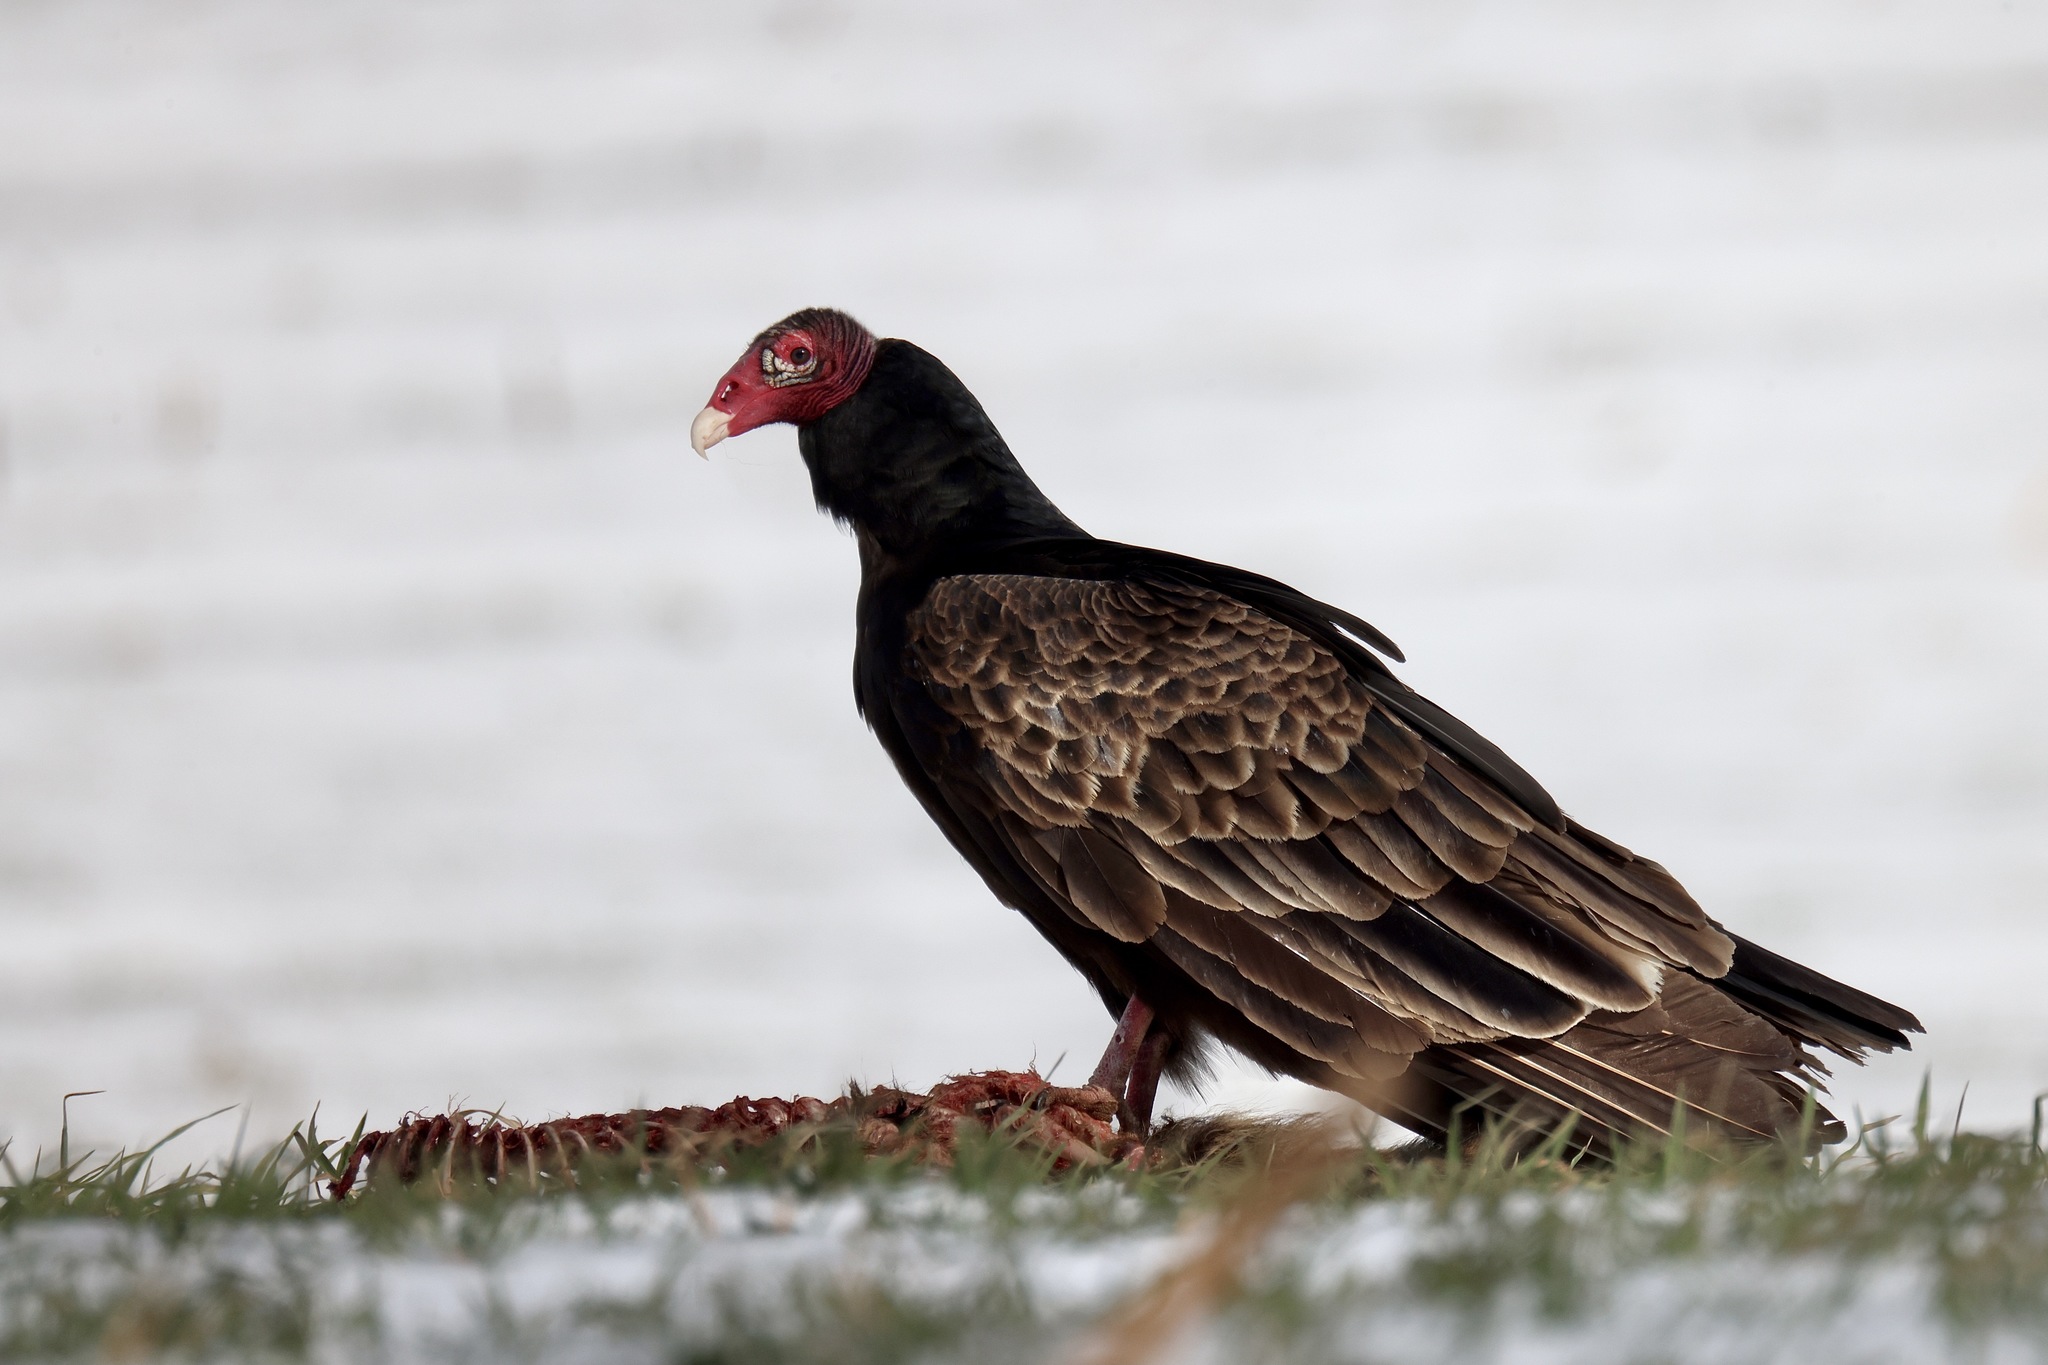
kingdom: Animalia
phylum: Chordata
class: Aves
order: Accipitriformes
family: Cathartidae
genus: Cathartes
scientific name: Cathartes aura
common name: Turkey vulture
